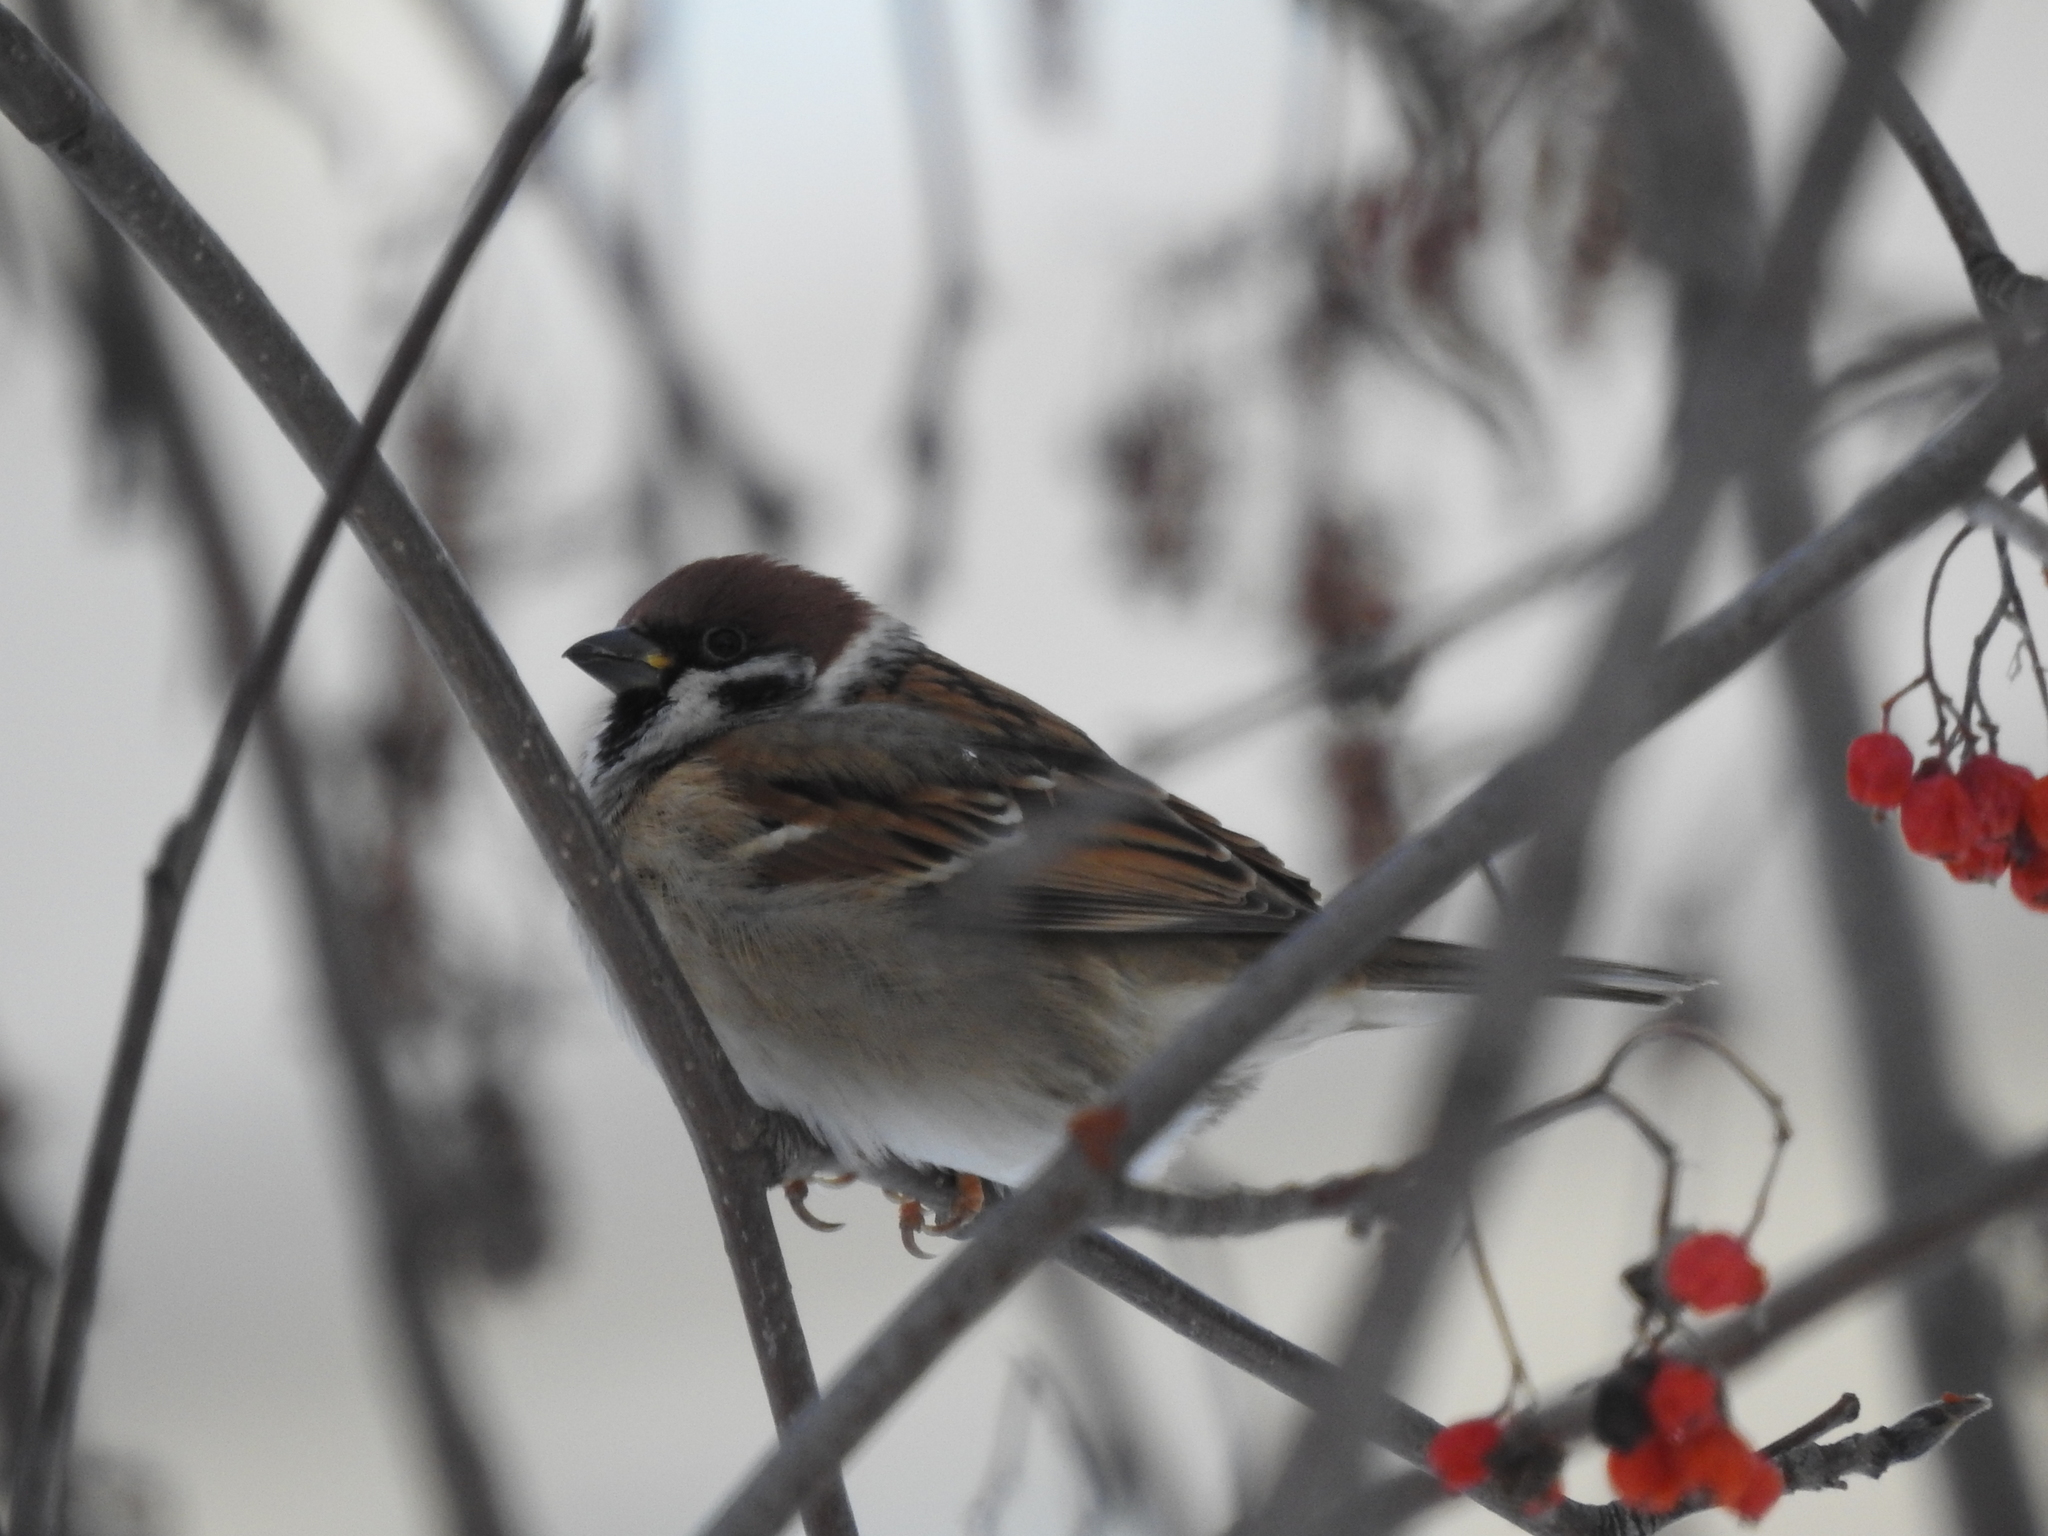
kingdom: Animalia
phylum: Chordata
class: Aves
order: Passeriformes
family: Passeridae
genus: Passer
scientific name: Passer montanus
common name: Eurasian tree sparrow
